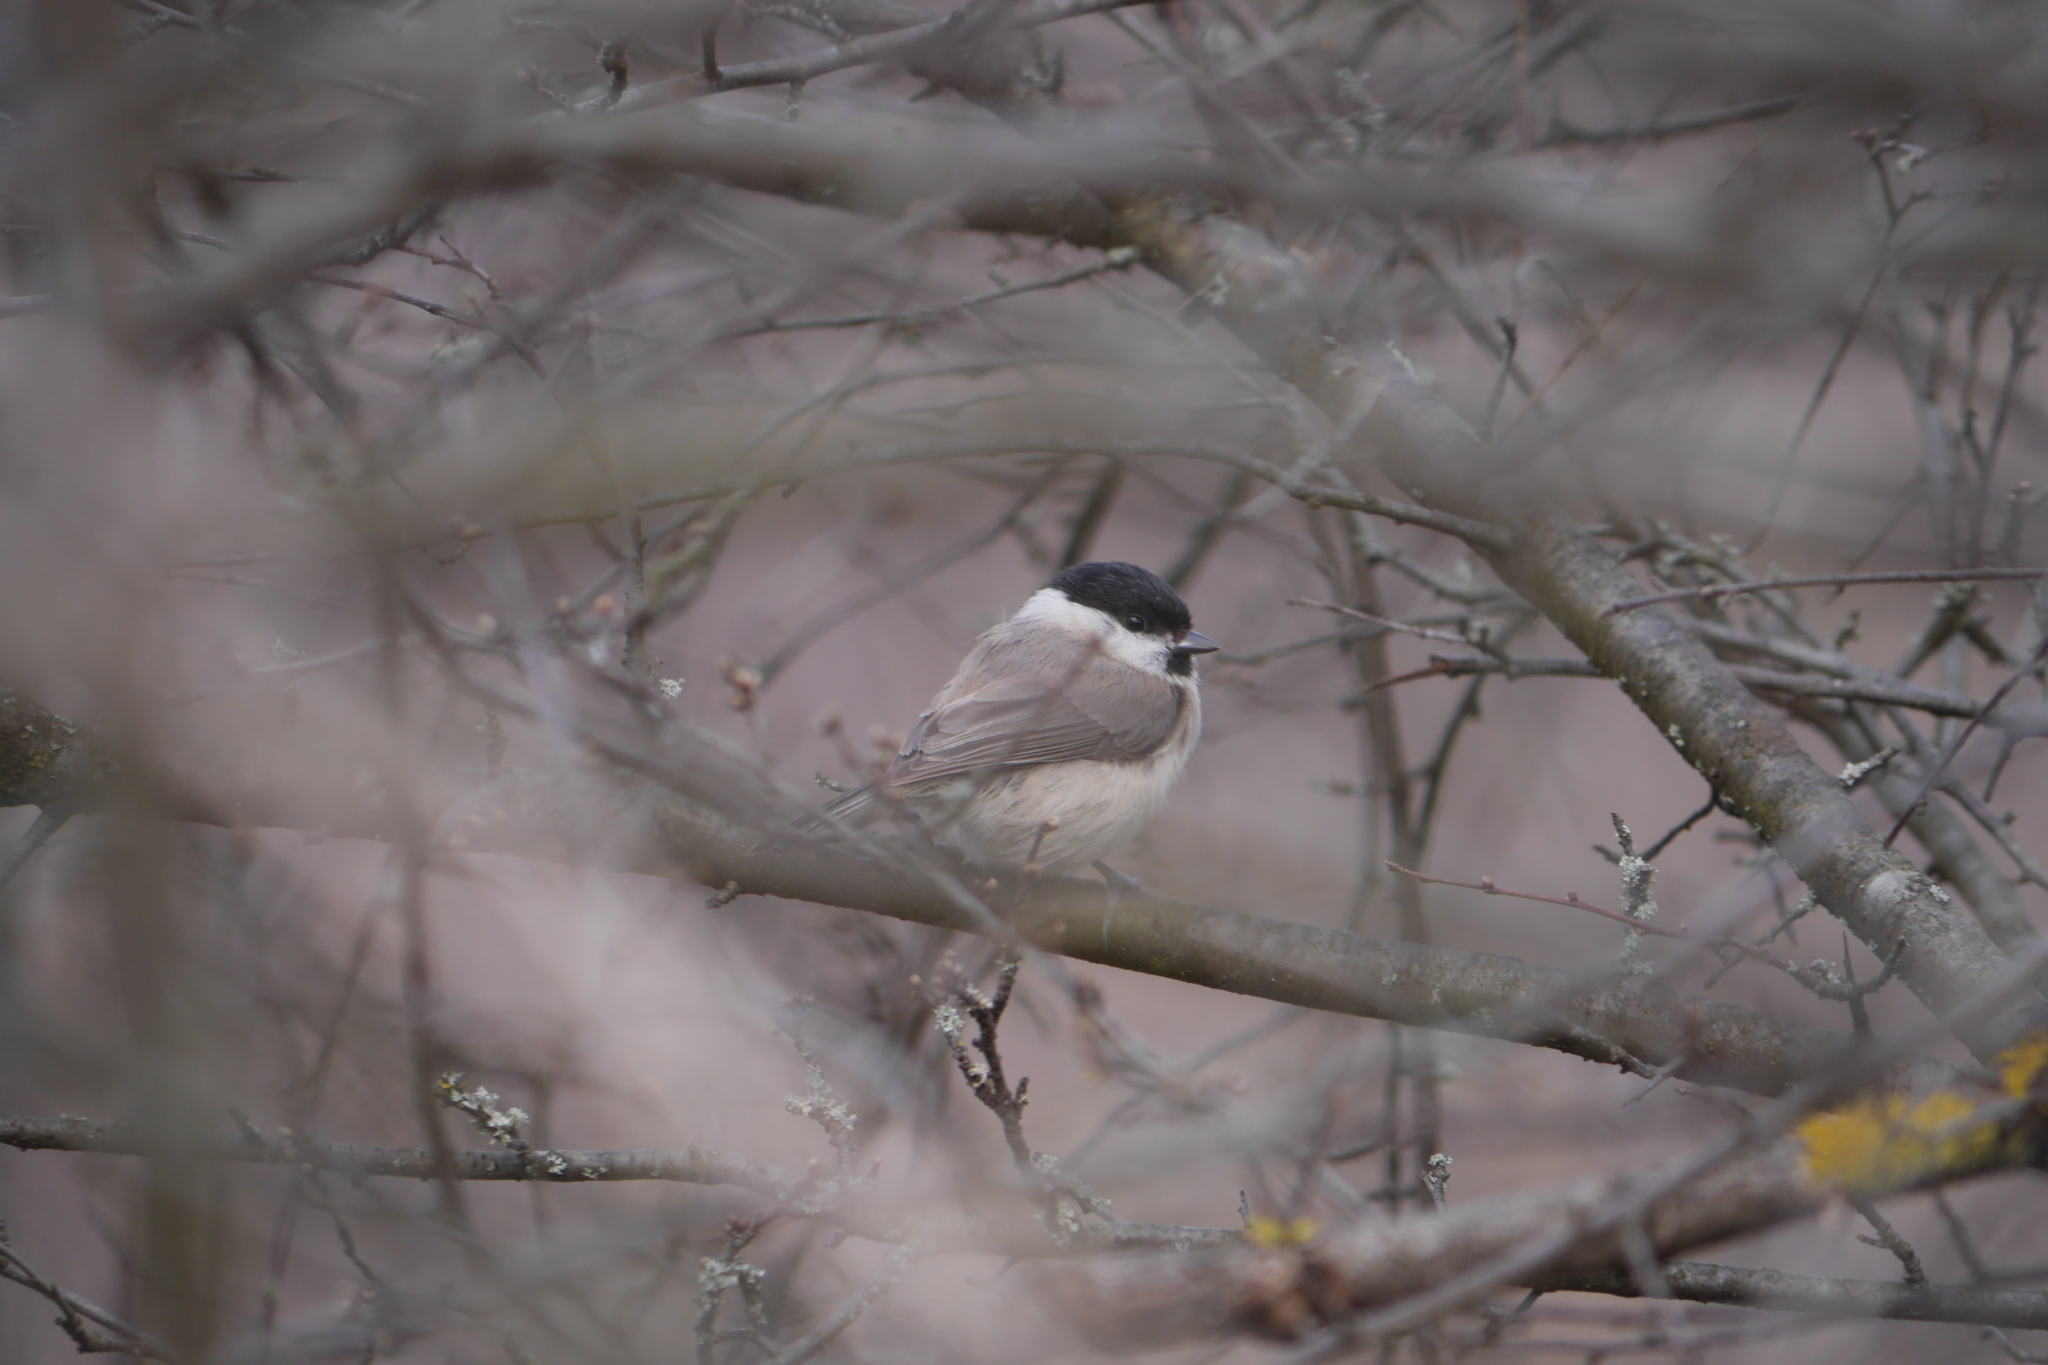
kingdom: Animalia
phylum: Chordata
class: Aves
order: Passeriformes
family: Paridae
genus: Poecile
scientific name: Poecile palustris
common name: Marsh tit
